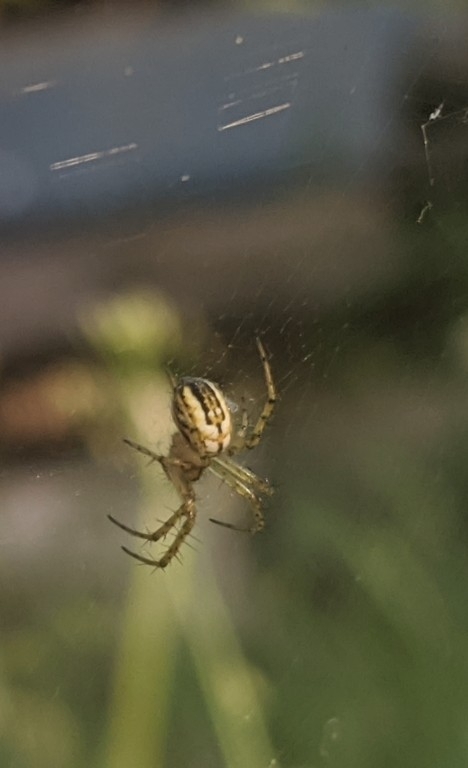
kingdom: Animalia
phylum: Arthropoda
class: Arachnida
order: Araneae
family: Araneidae
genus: Mangora
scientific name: Mangora acalypha
